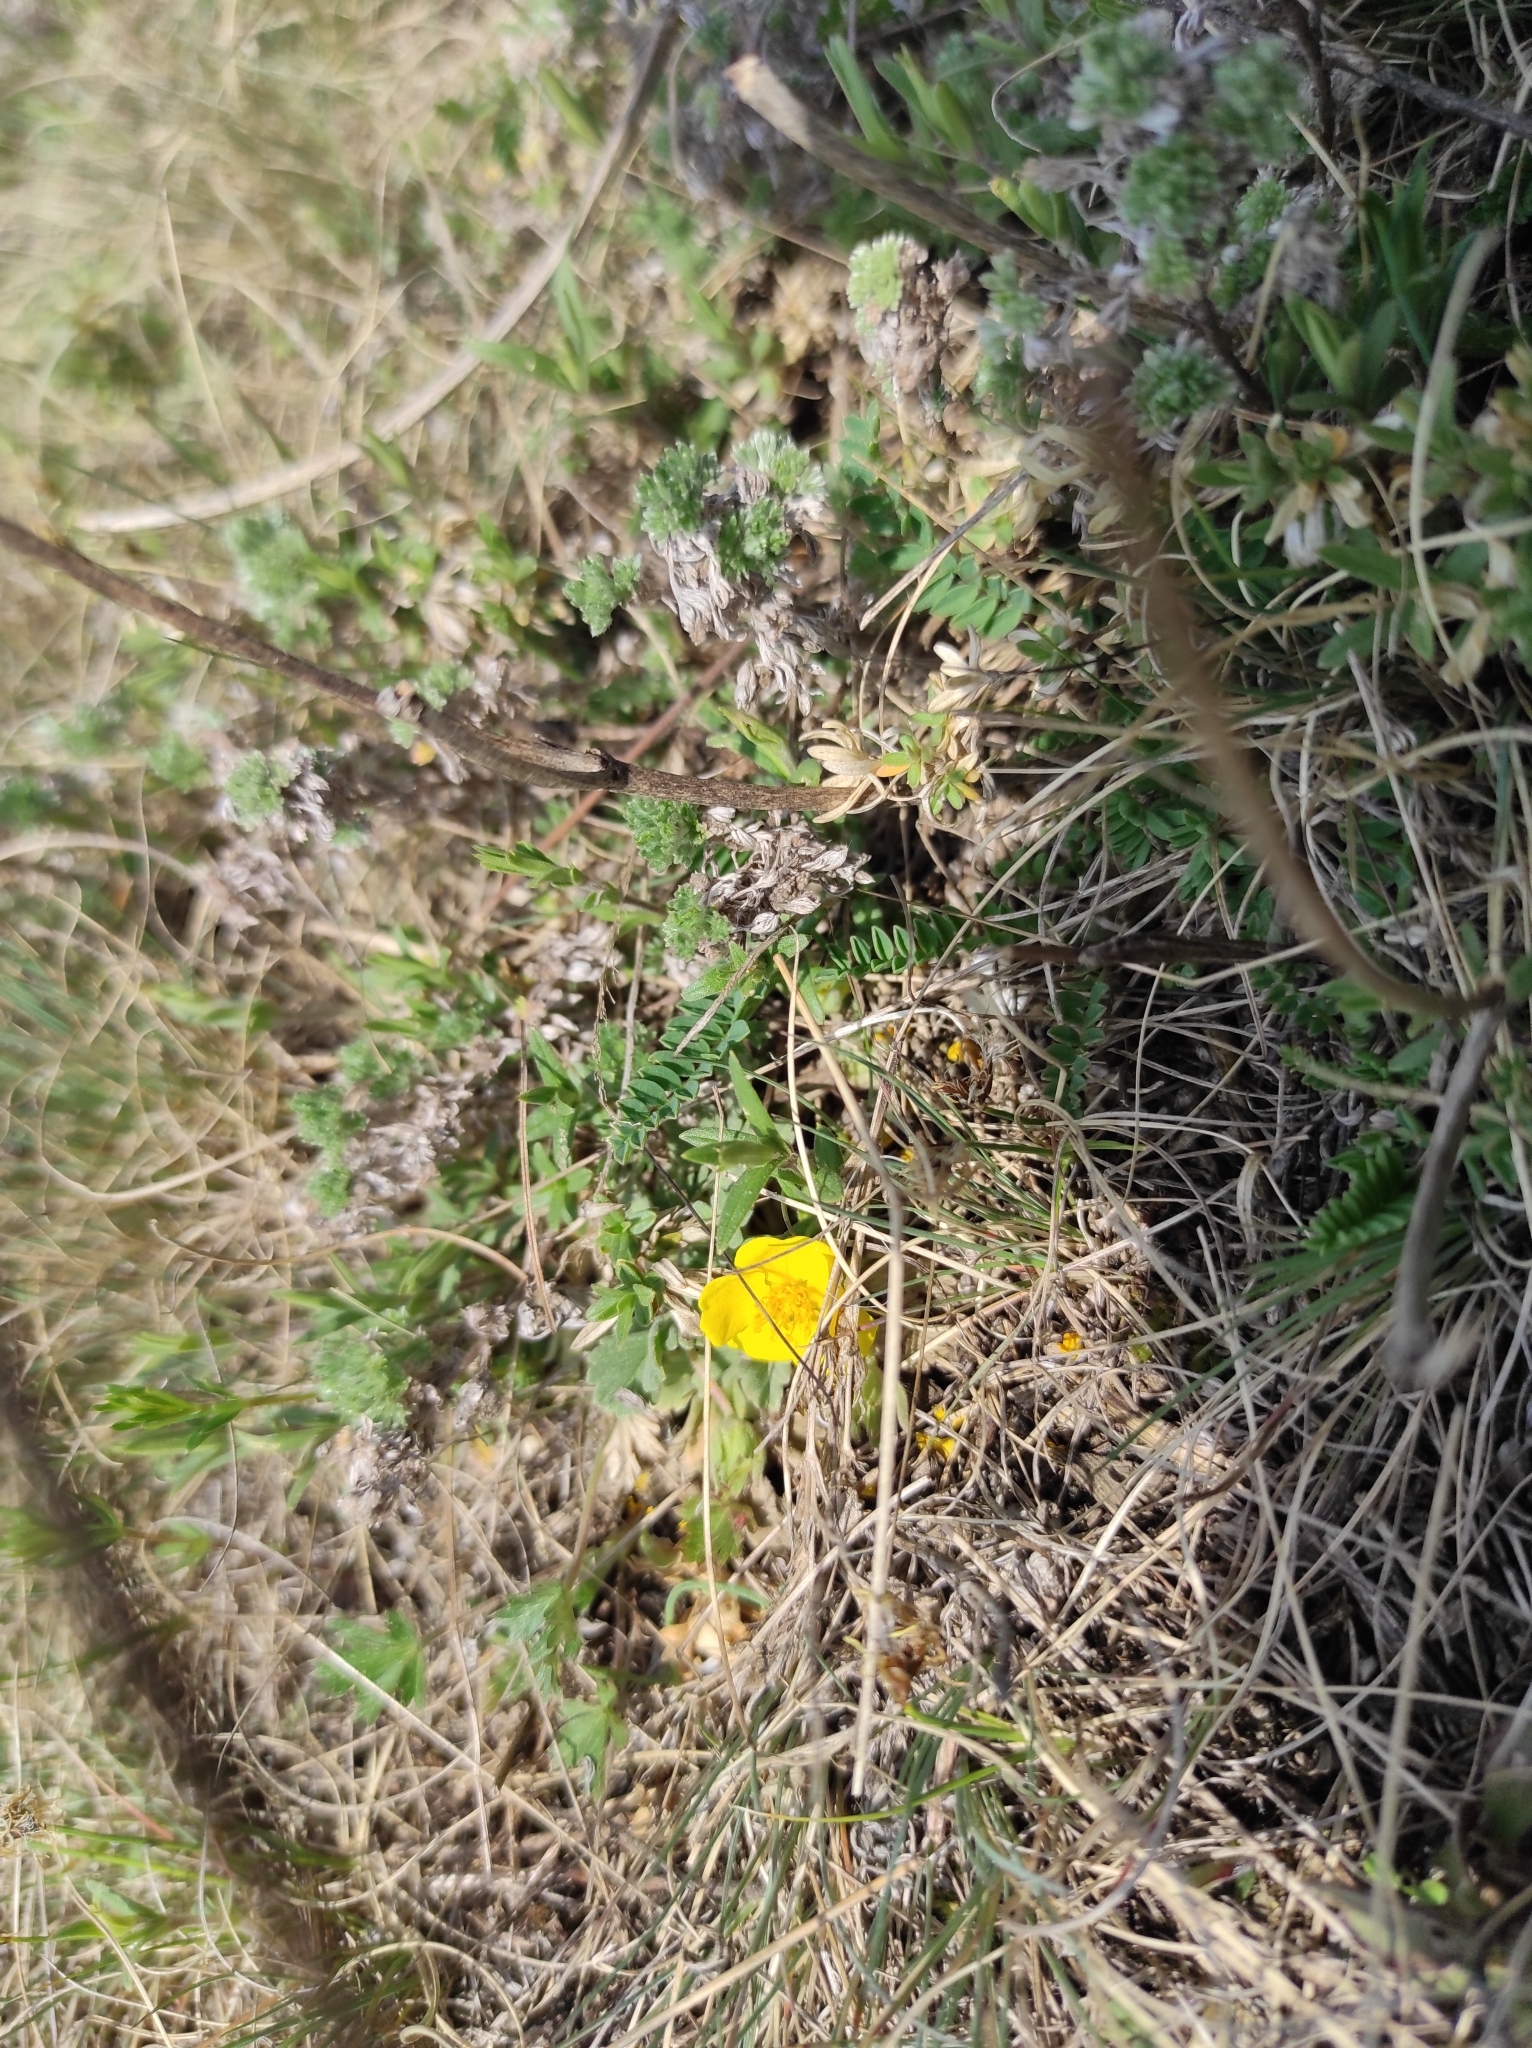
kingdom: Plantae
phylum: Tracheophyta
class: Magnoliopsida
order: Rosales
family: Rosaceae
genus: Potentilla
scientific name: Potentilla acaulis
